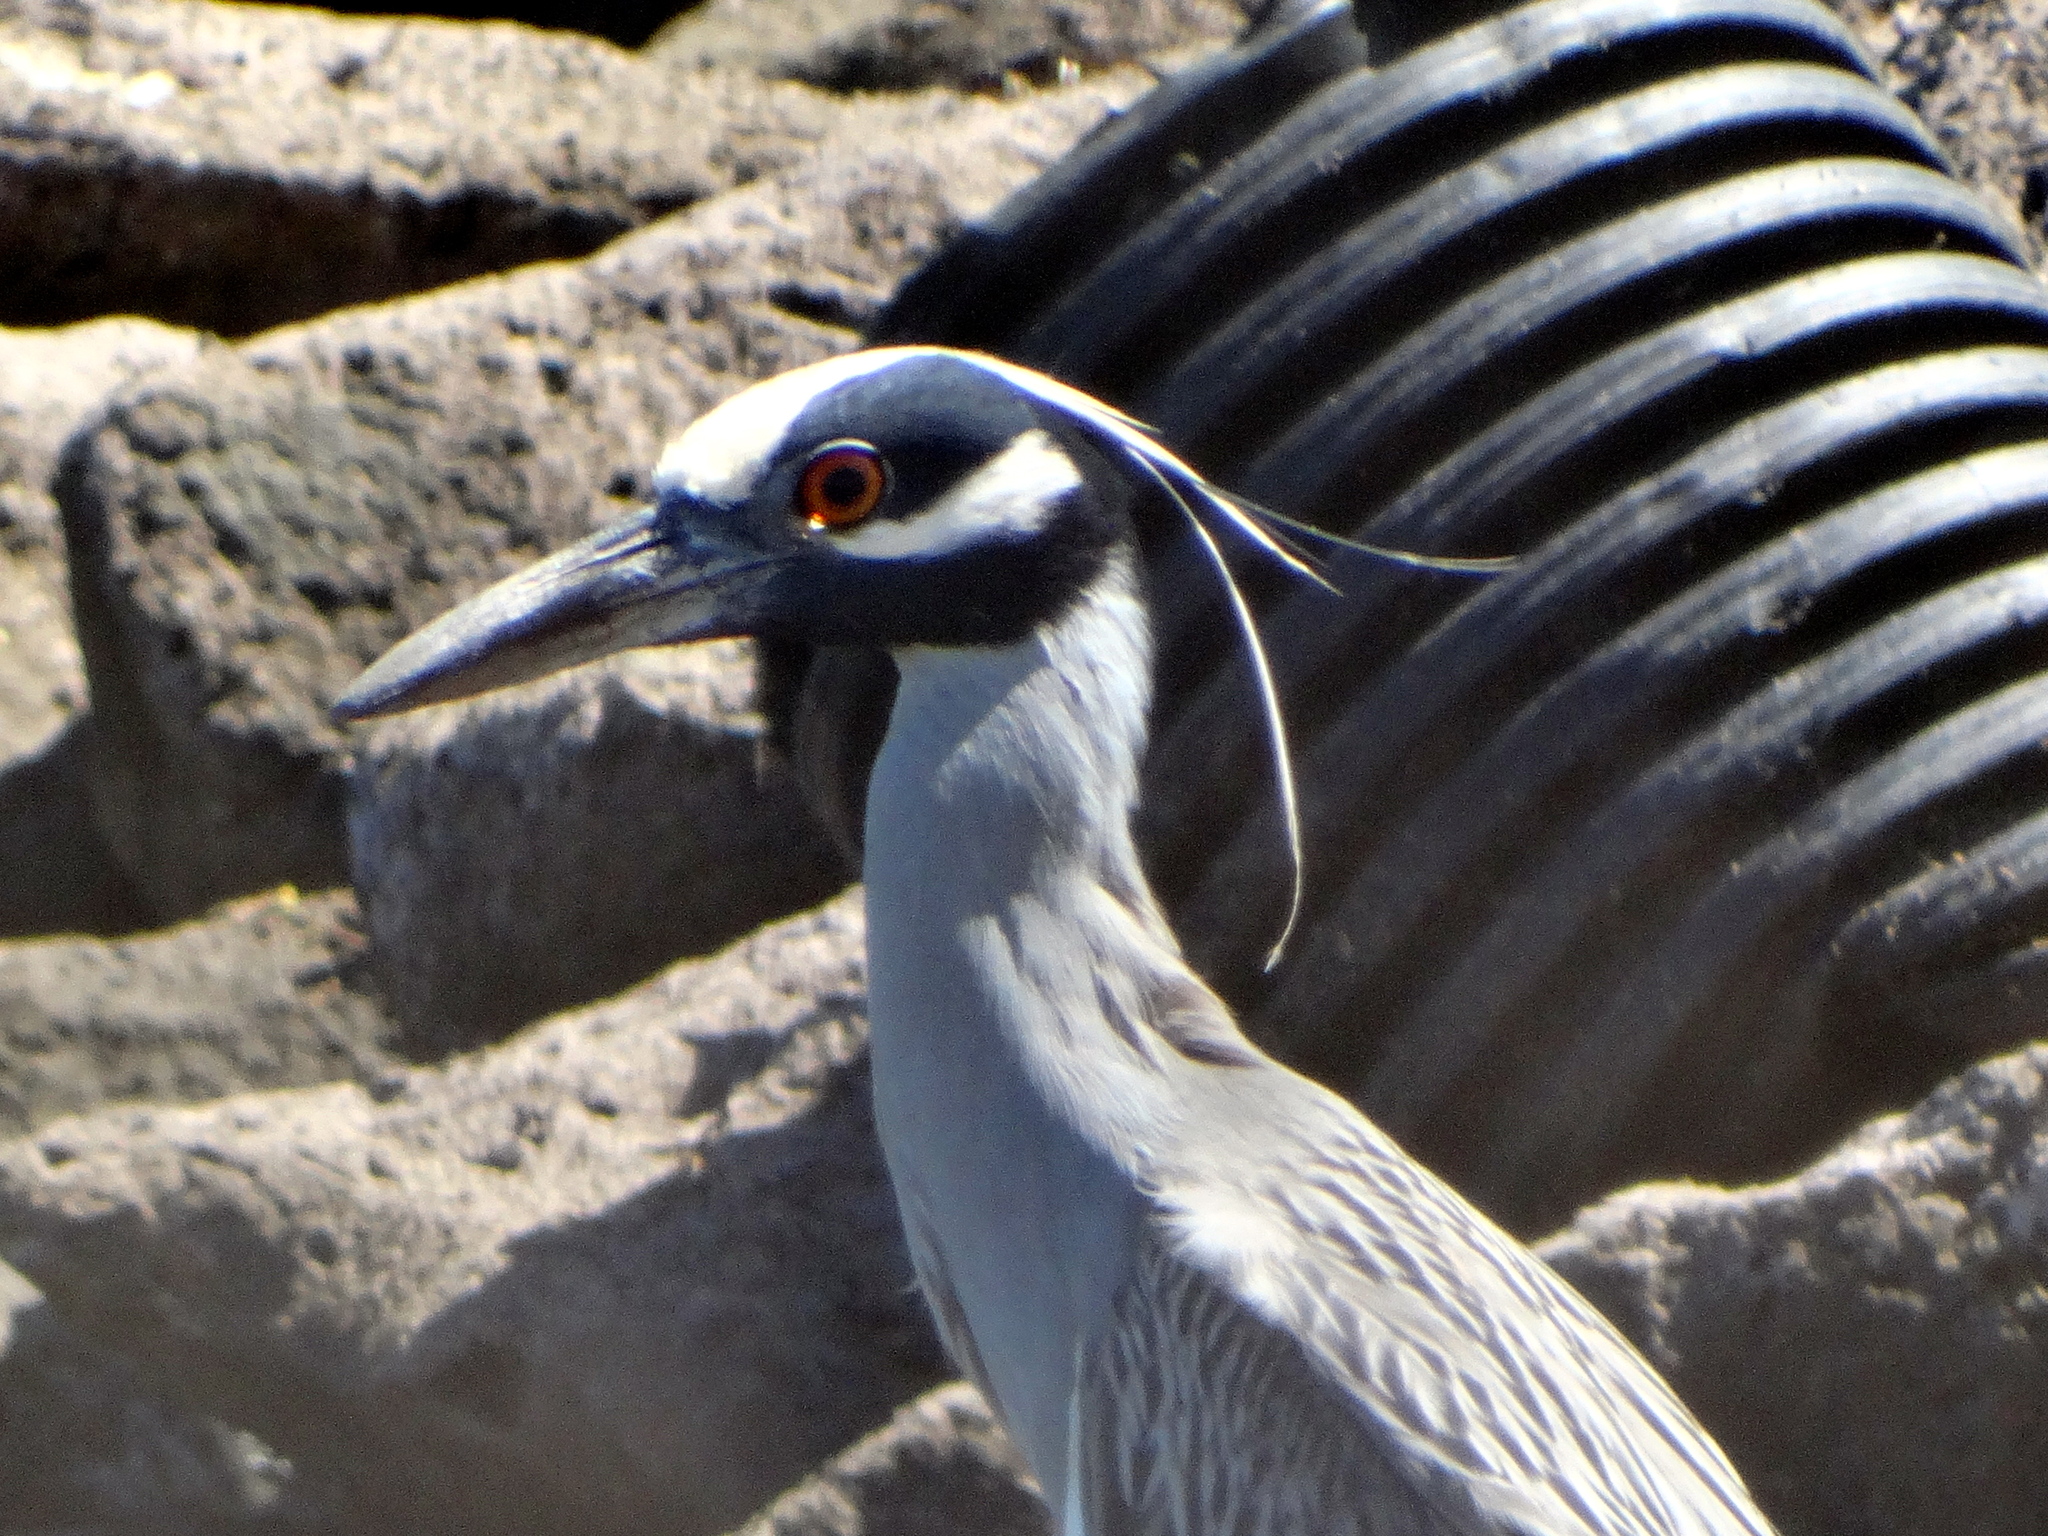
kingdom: Animalia
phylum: Chordata
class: Aves
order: Pelecaniformes
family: Ardeidae
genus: Nyctanassa
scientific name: Nyctanassa violacea
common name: Yellow-crowned night heron
